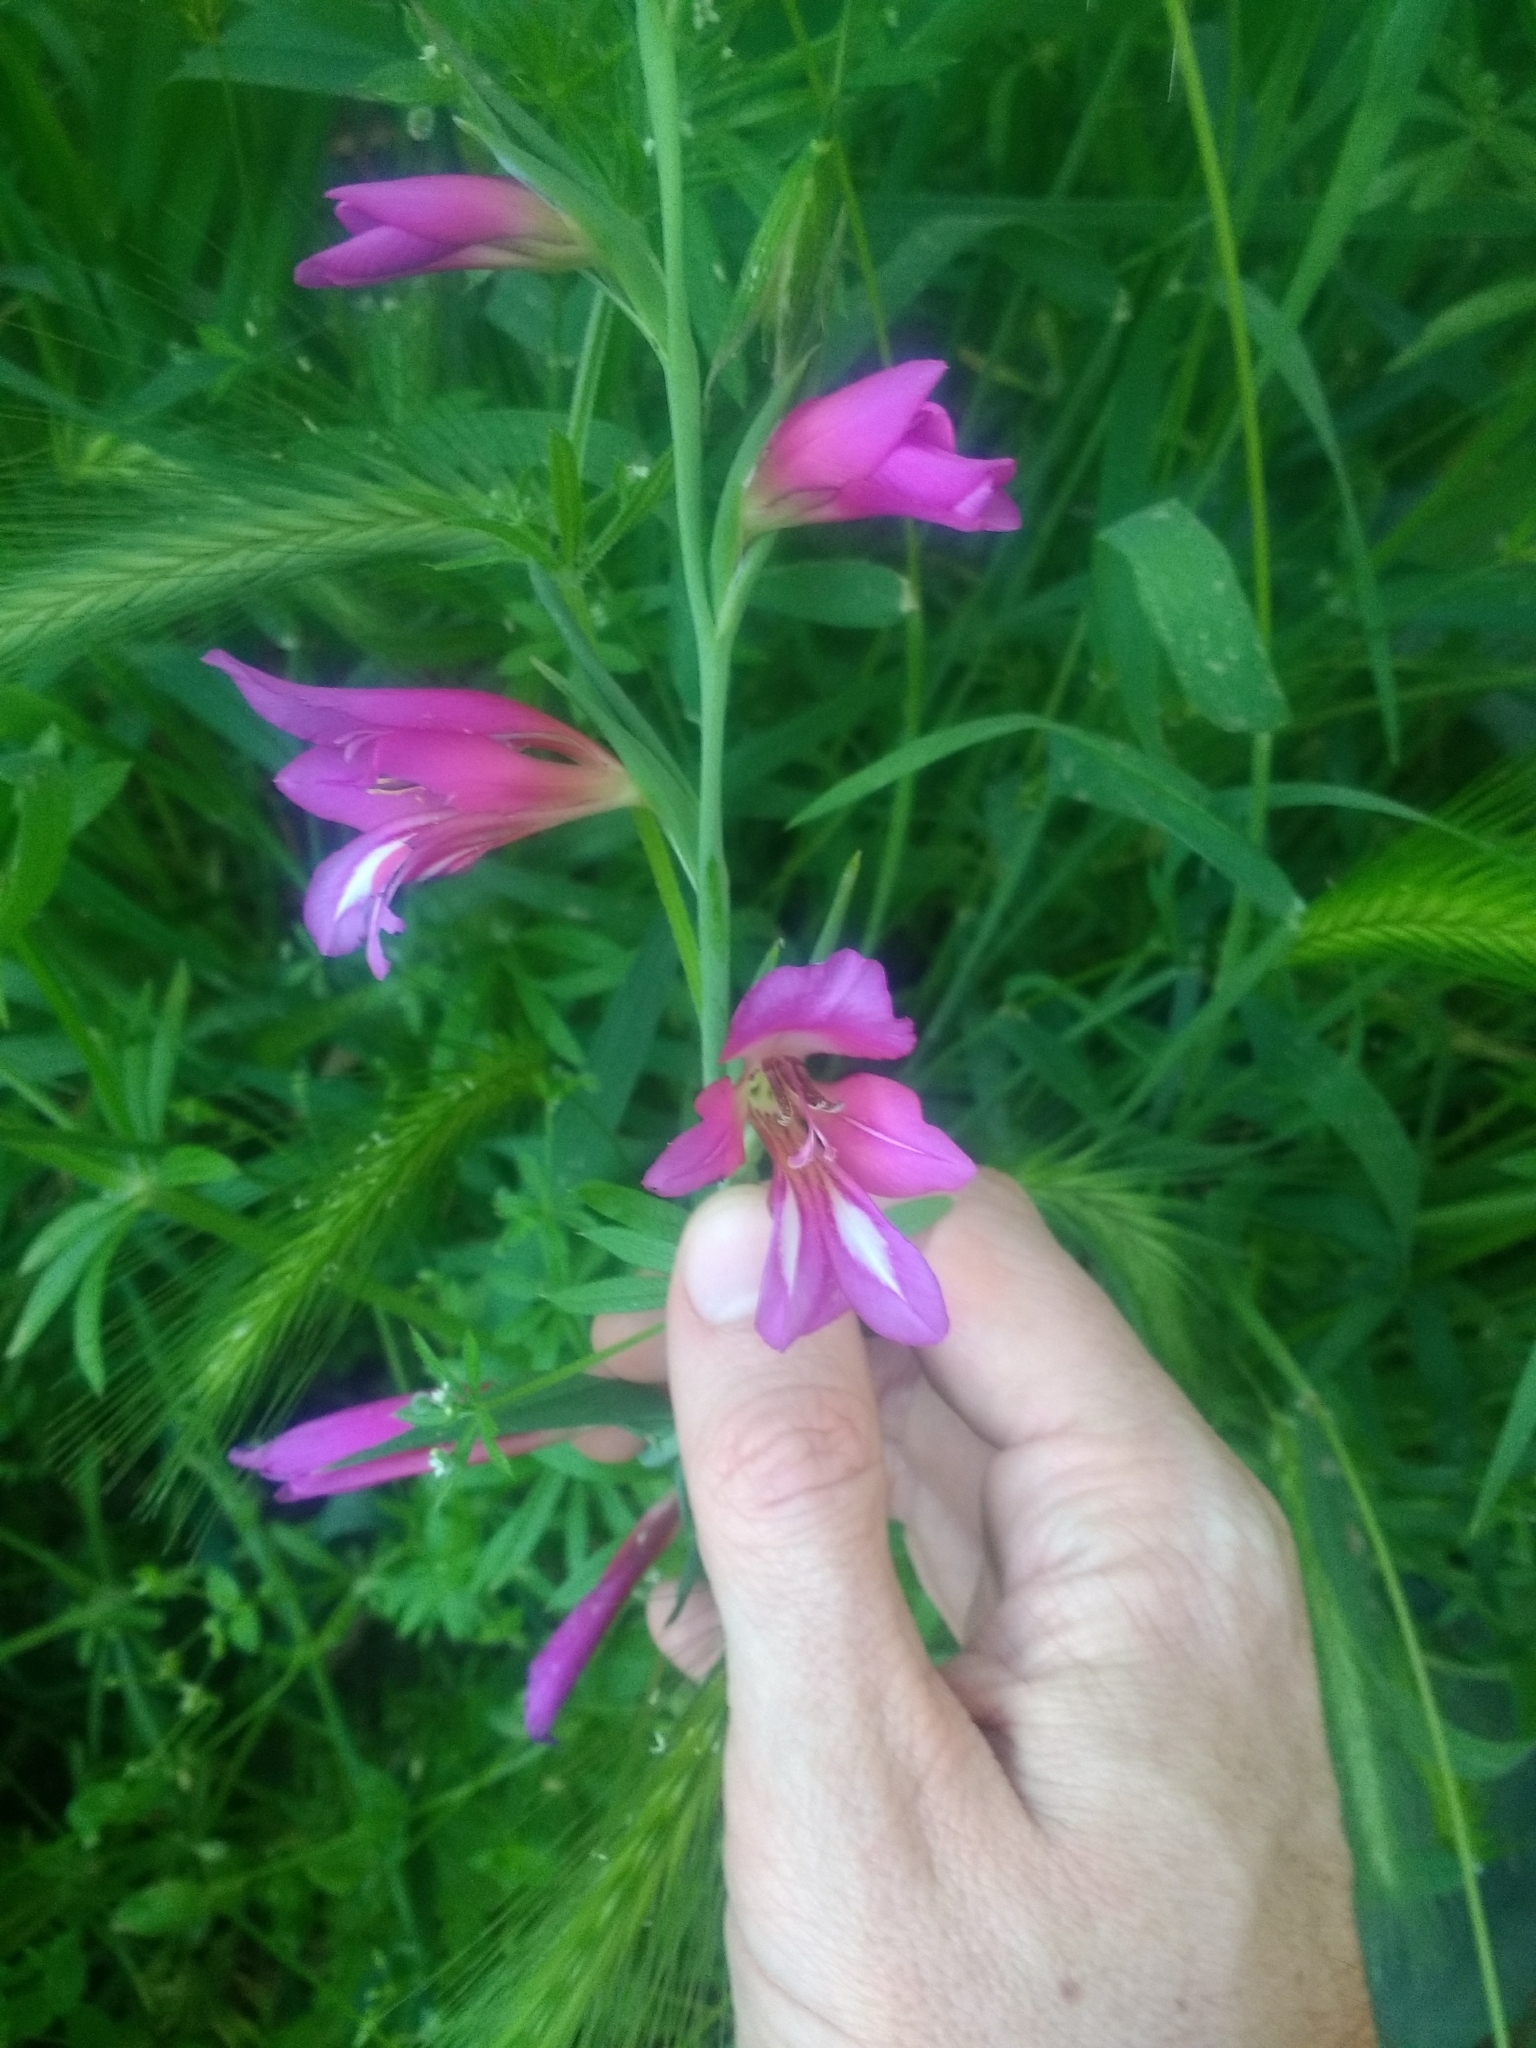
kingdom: Plantae
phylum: Tracheophyta
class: Liliopsida
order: Asparagales
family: Iridaceae
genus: Gladiolus
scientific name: Gladiolus italicus
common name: Field gladiolus
